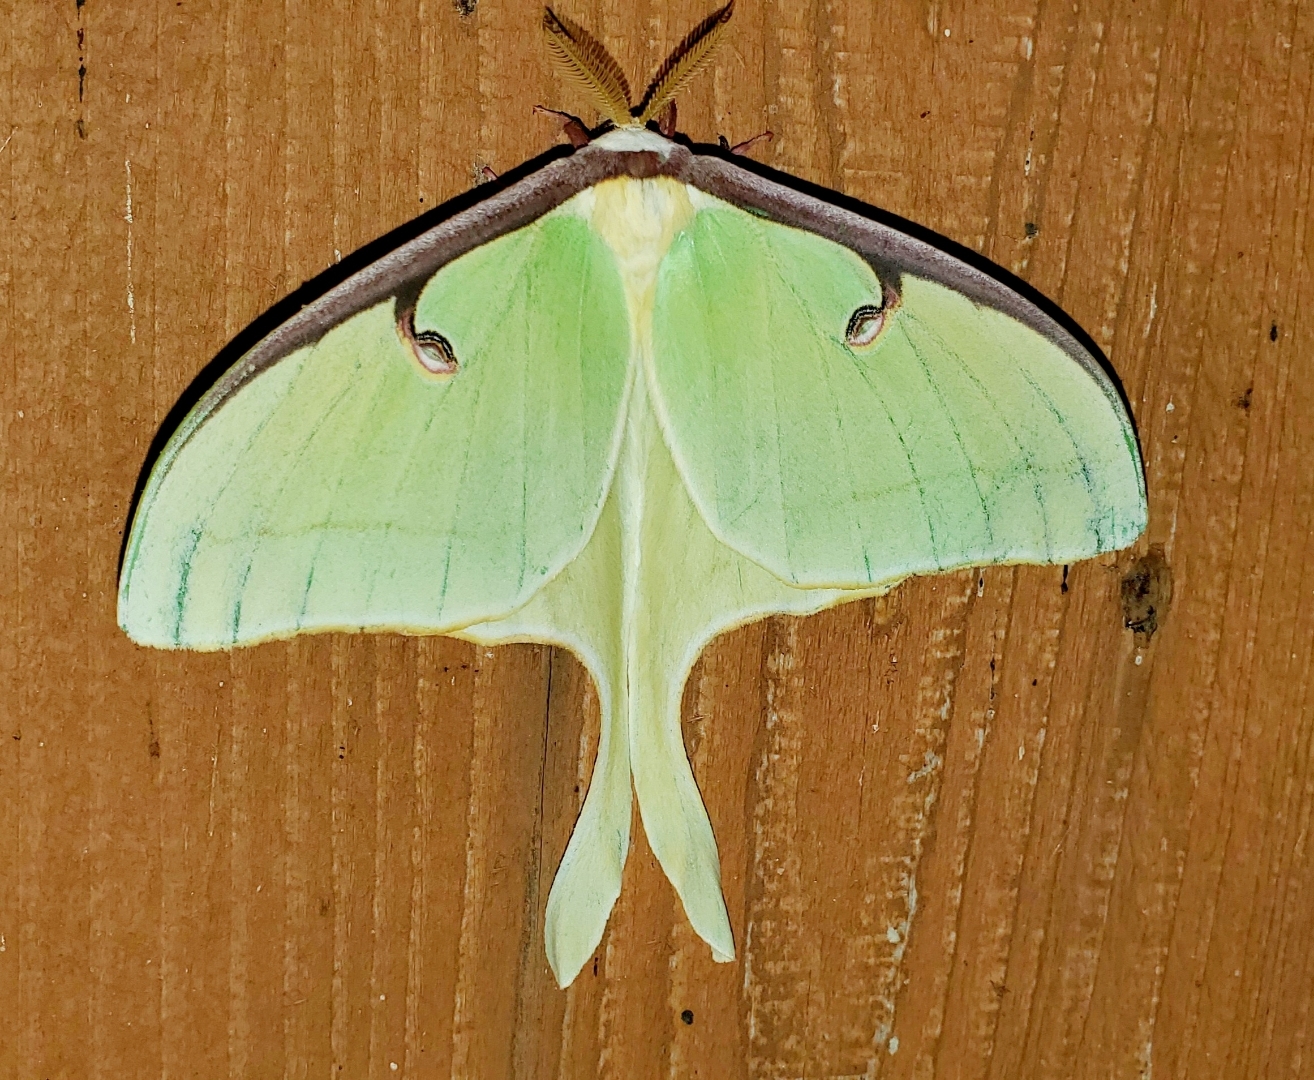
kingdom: Animalia
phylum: Arthropoda
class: Insecta
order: Lepidoptera
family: Saturniidae
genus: Actias
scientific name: Actias luna
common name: Luna moth
